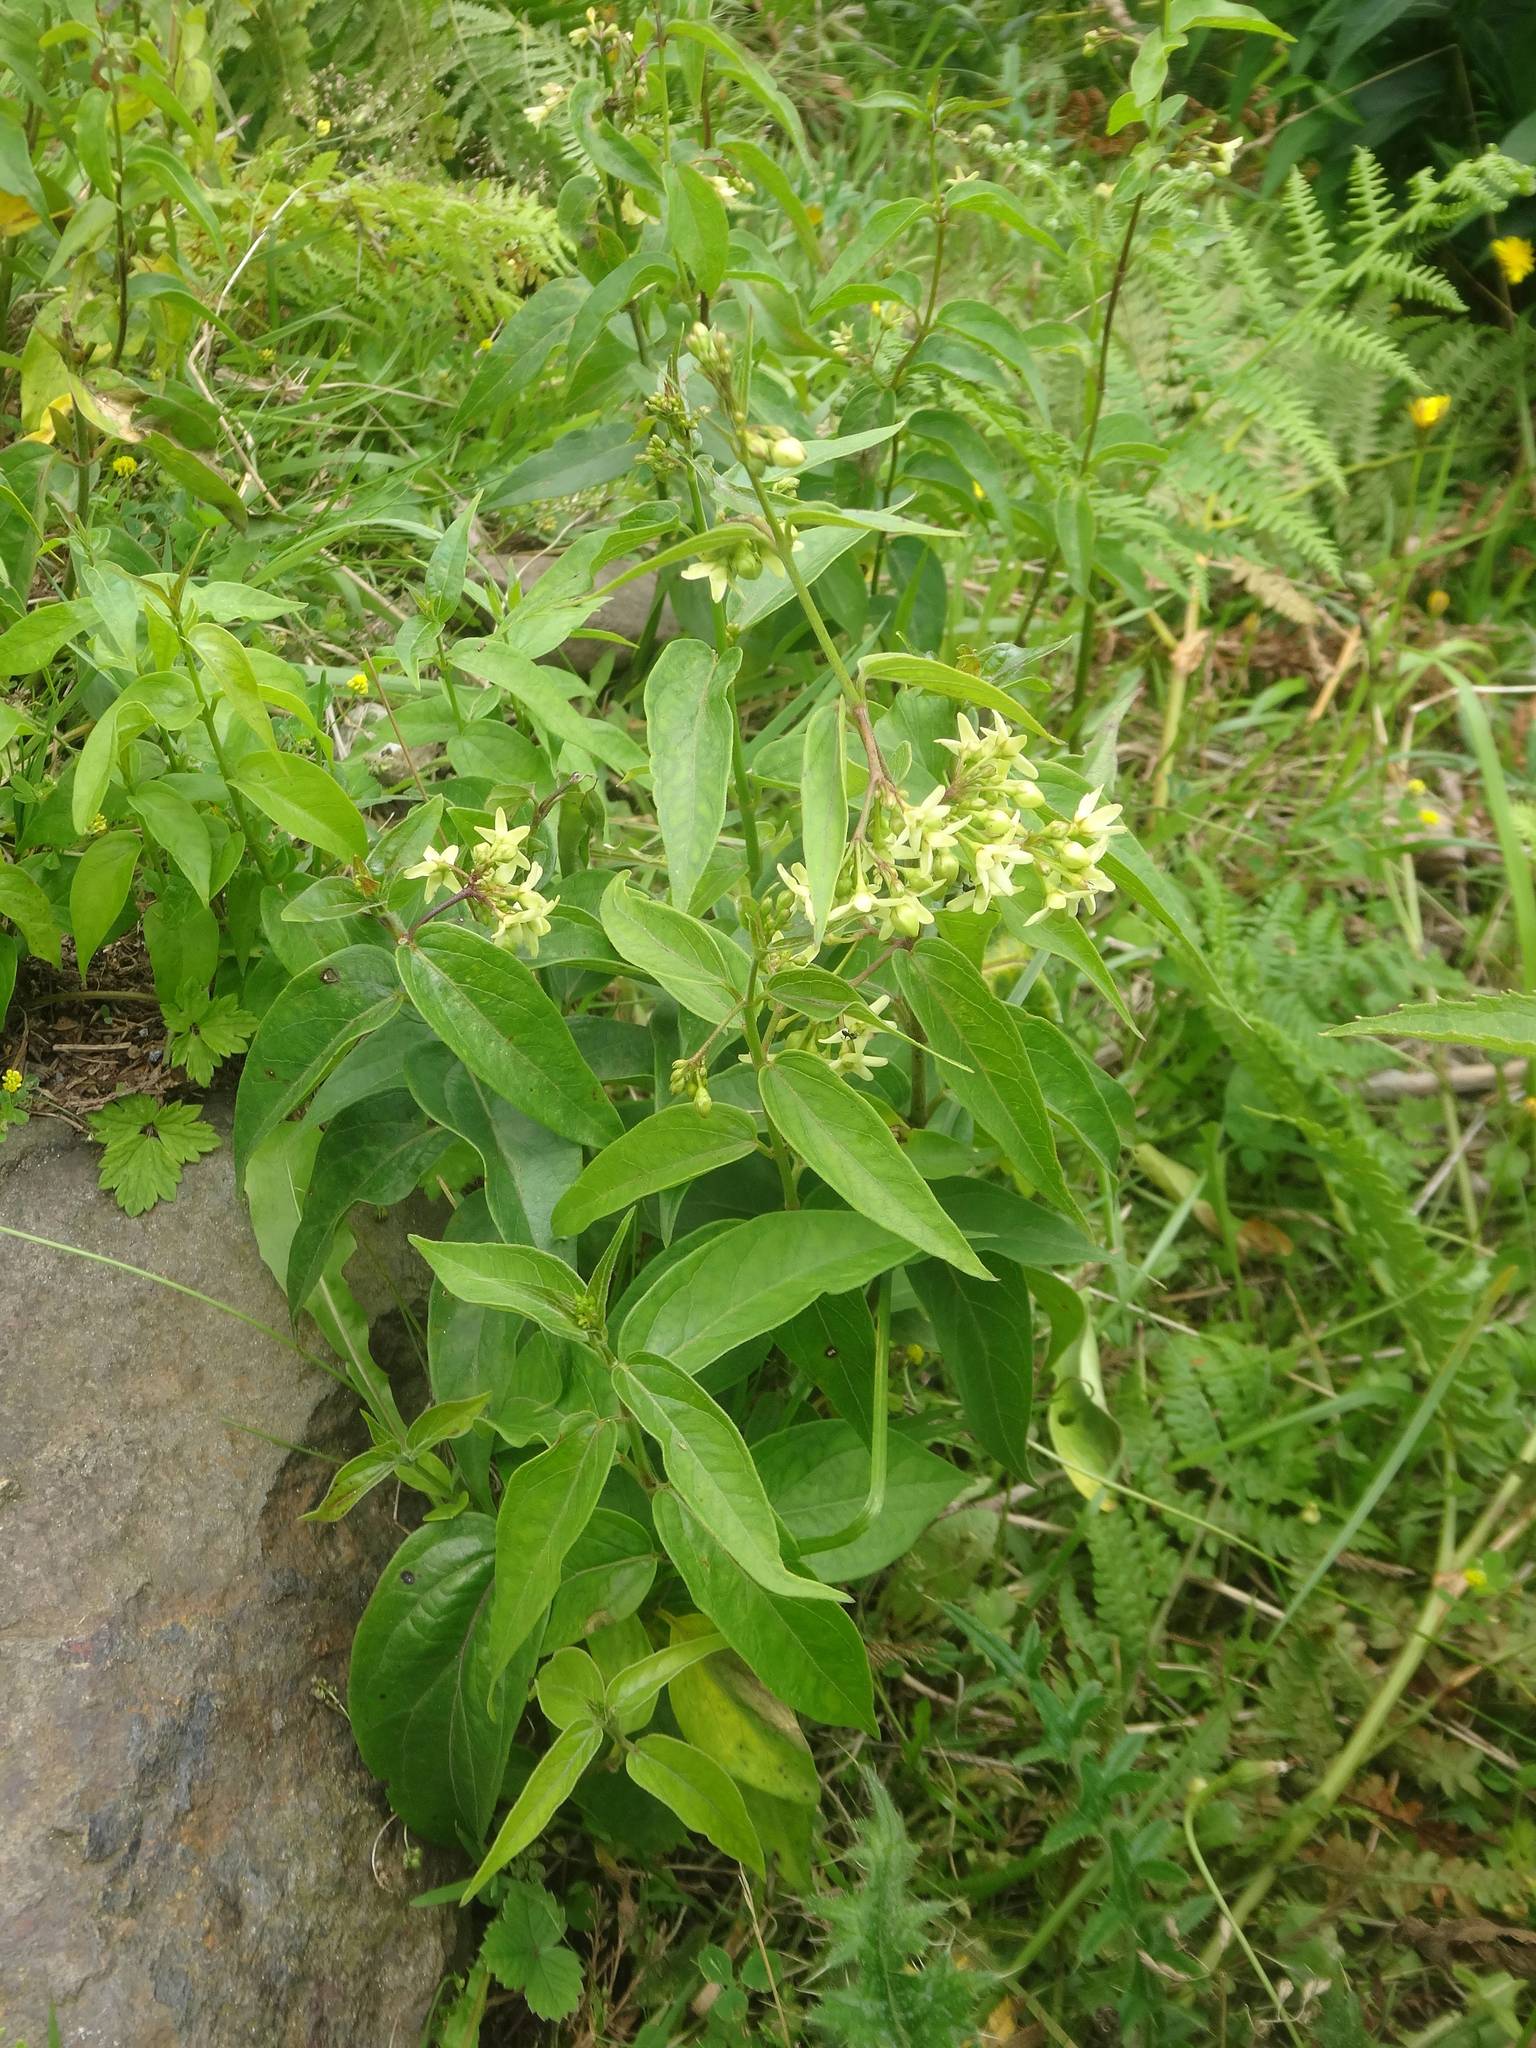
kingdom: Plantae
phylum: Tracheophyta
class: Magnoliopsida
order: Gentianales
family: Apocynaceae
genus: Vincetoxicum
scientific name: Vincetoxicum hirundinaria
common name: White swallowwort
